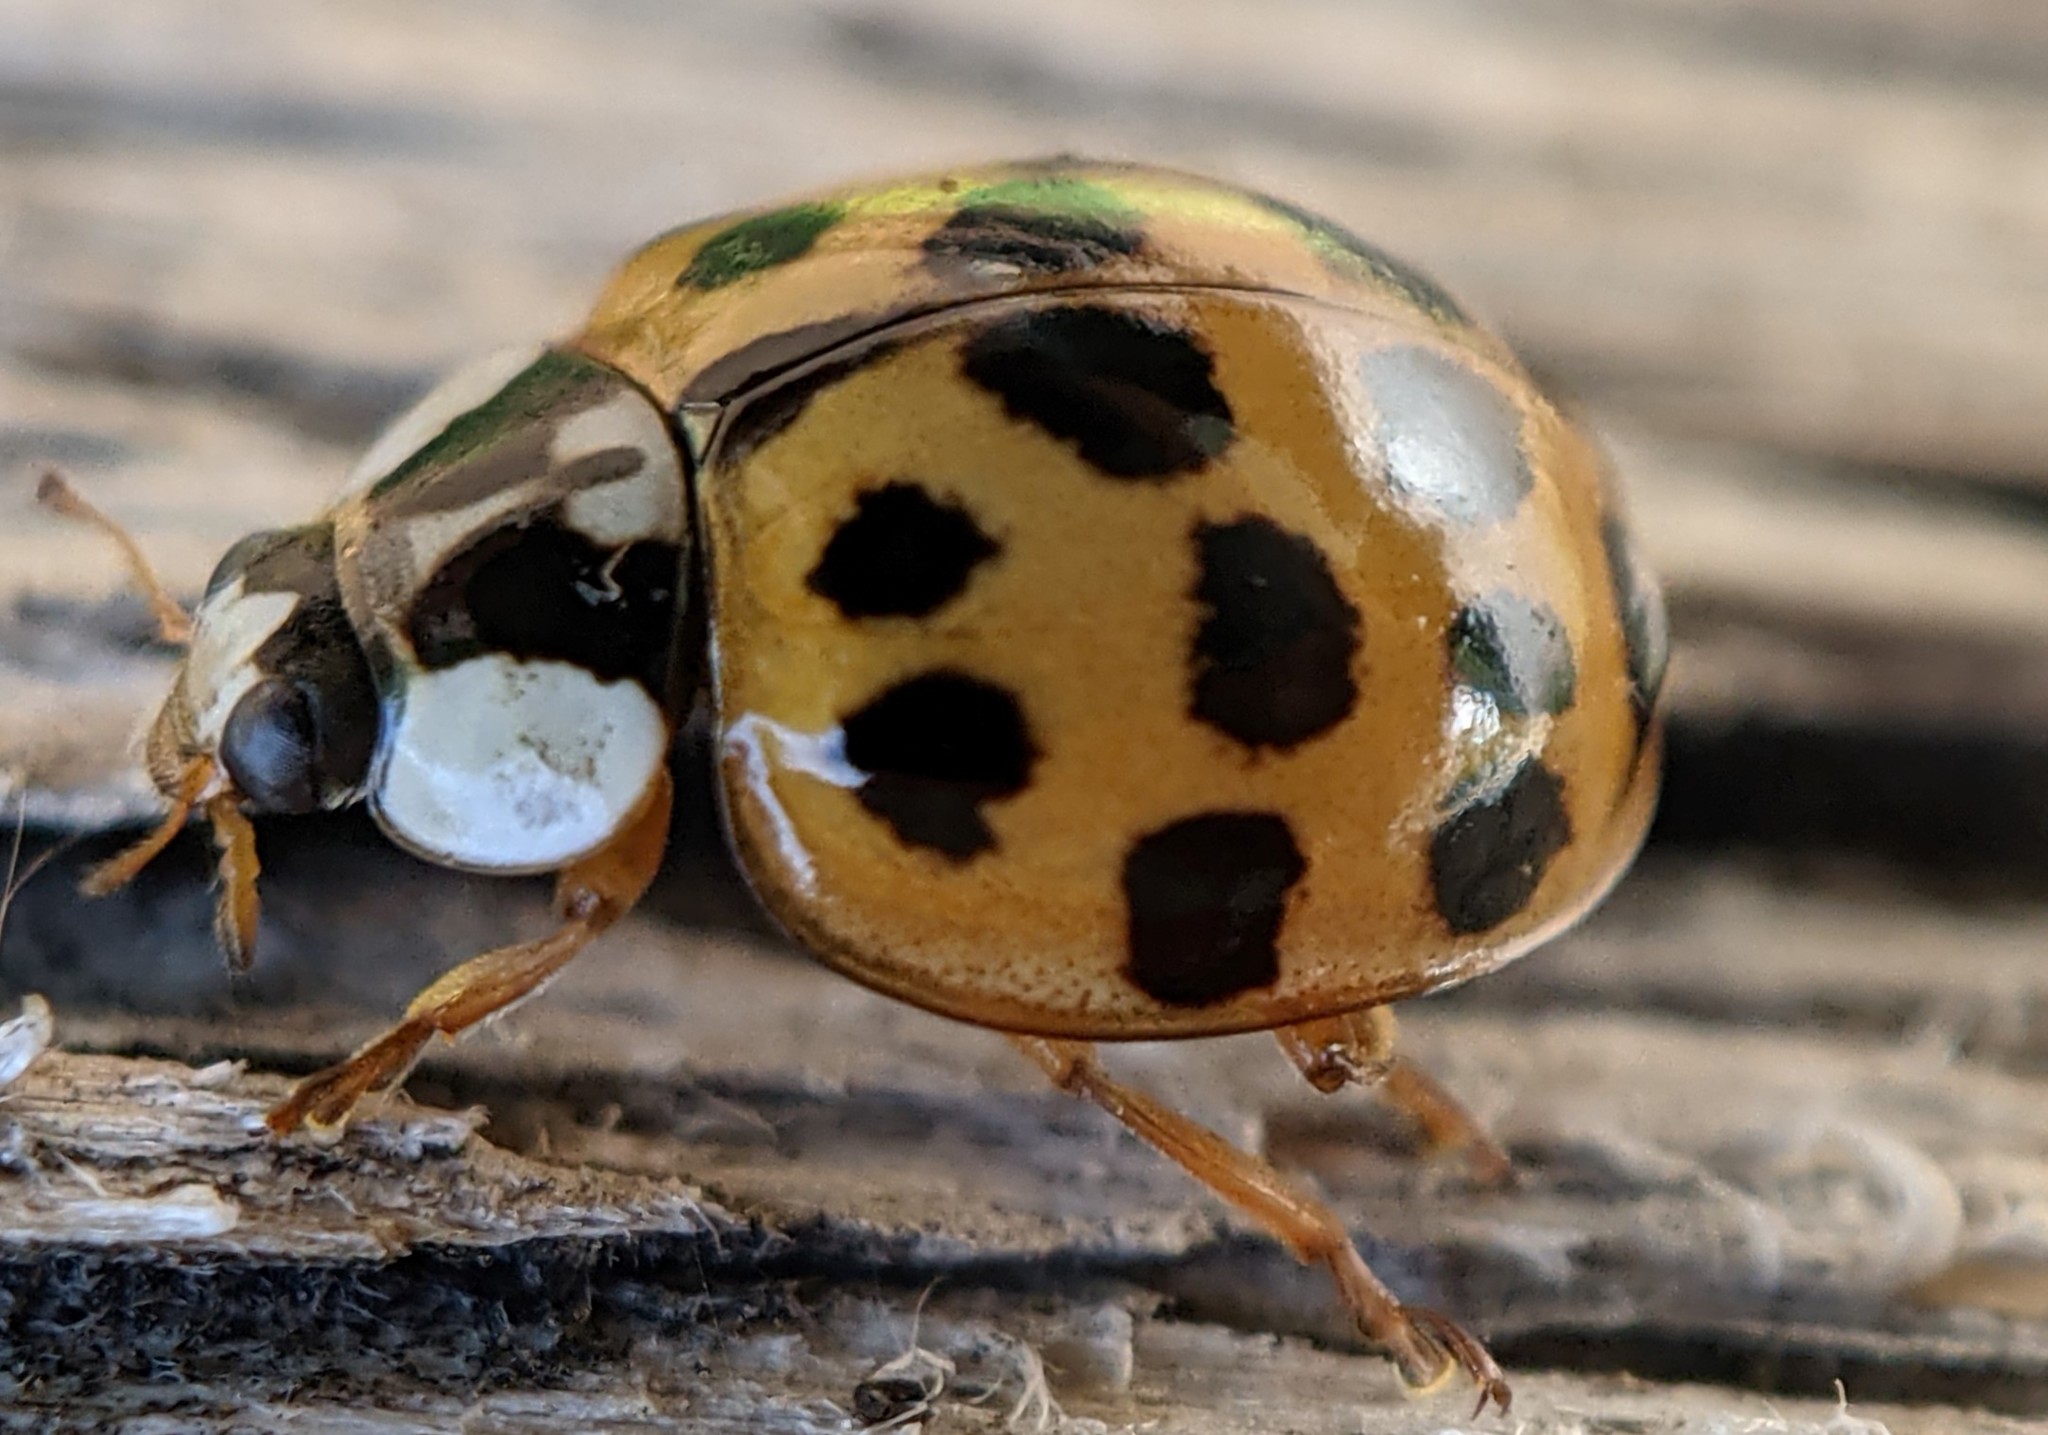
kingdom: Animalia
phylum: Arthropoda
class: Insecta
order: Coleoptera
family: Coccinellidae
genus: Harmonia
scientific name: Harmonia axyridis
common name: Harlequin ladybird
